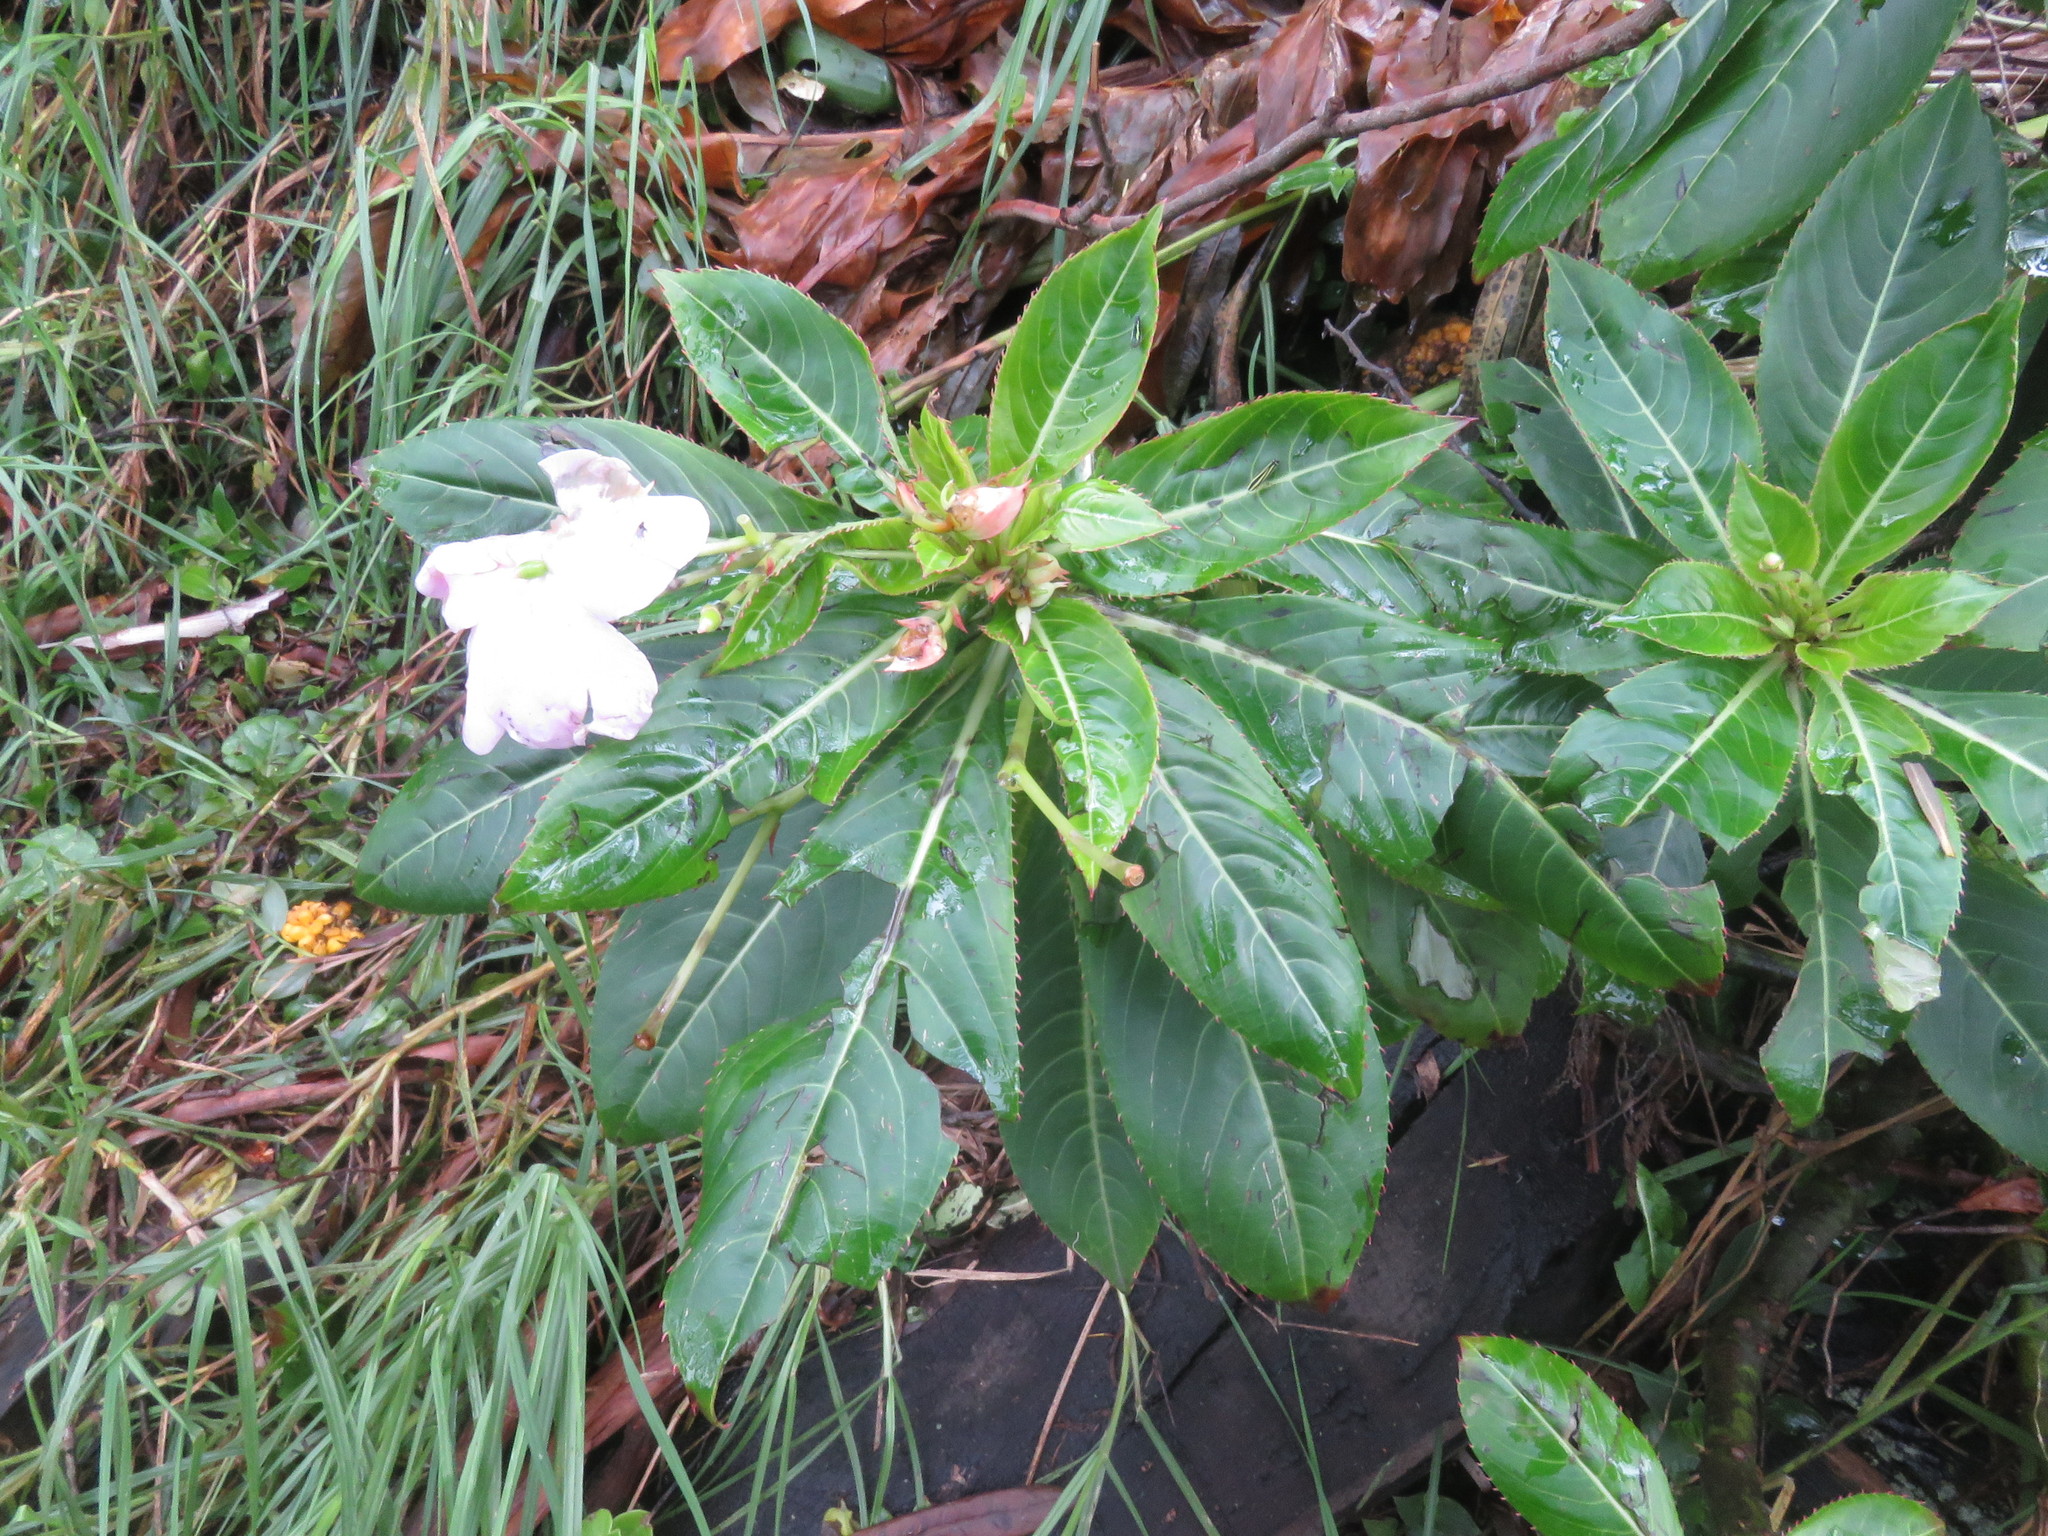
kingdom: Plantae
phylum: Tracheophyta
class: Magnoliopsida
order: Ericales
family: Balsaminaceae
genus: Impatiens
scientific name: Impatiens sodenii
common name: Oliver's touch-me-not
